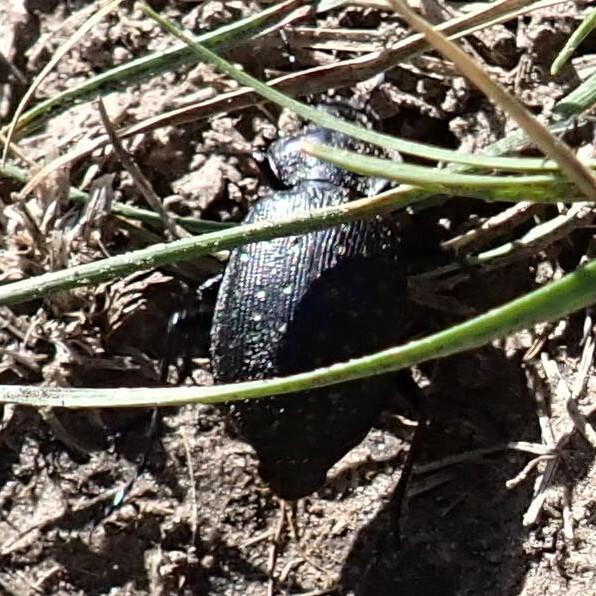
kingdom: Animalia
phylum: Arthropoda
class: Insecta
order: Coleoptera
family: Carabidae
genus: Calosoma
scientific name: Calosoma calidum
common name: Fiery hunter
